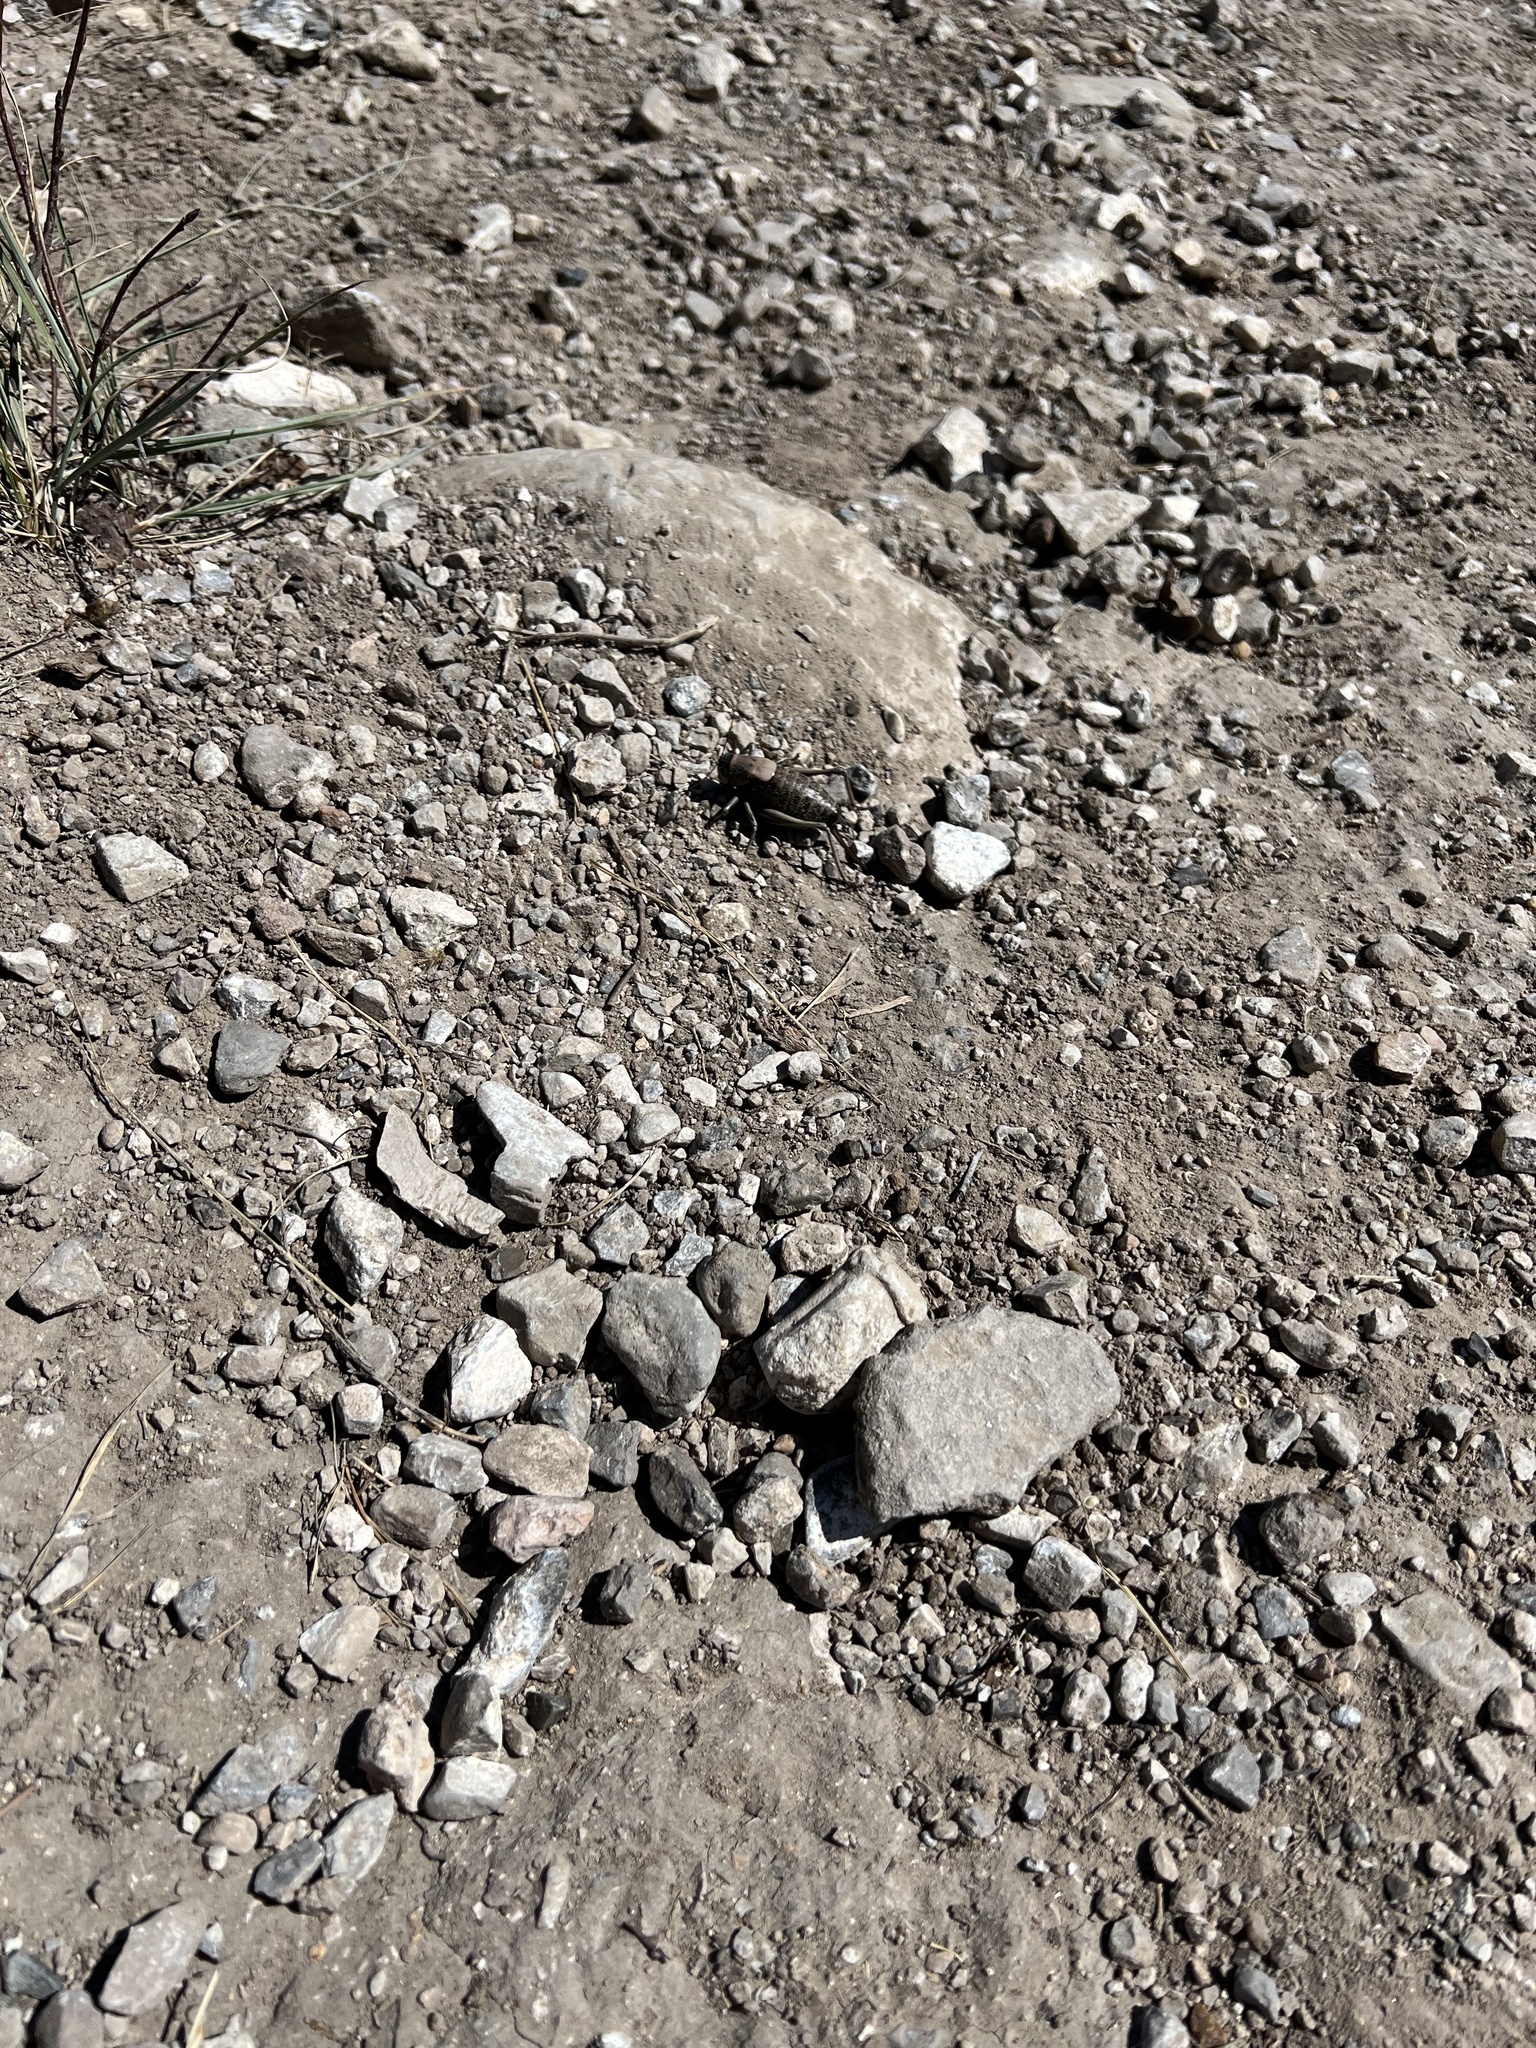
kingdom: Animalia
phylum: Arthropoda
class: Insecta
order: Orthoptera
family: Tettigoniidae
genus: Anabrus
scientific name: Anabrus simplex
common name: Mormon cricket
